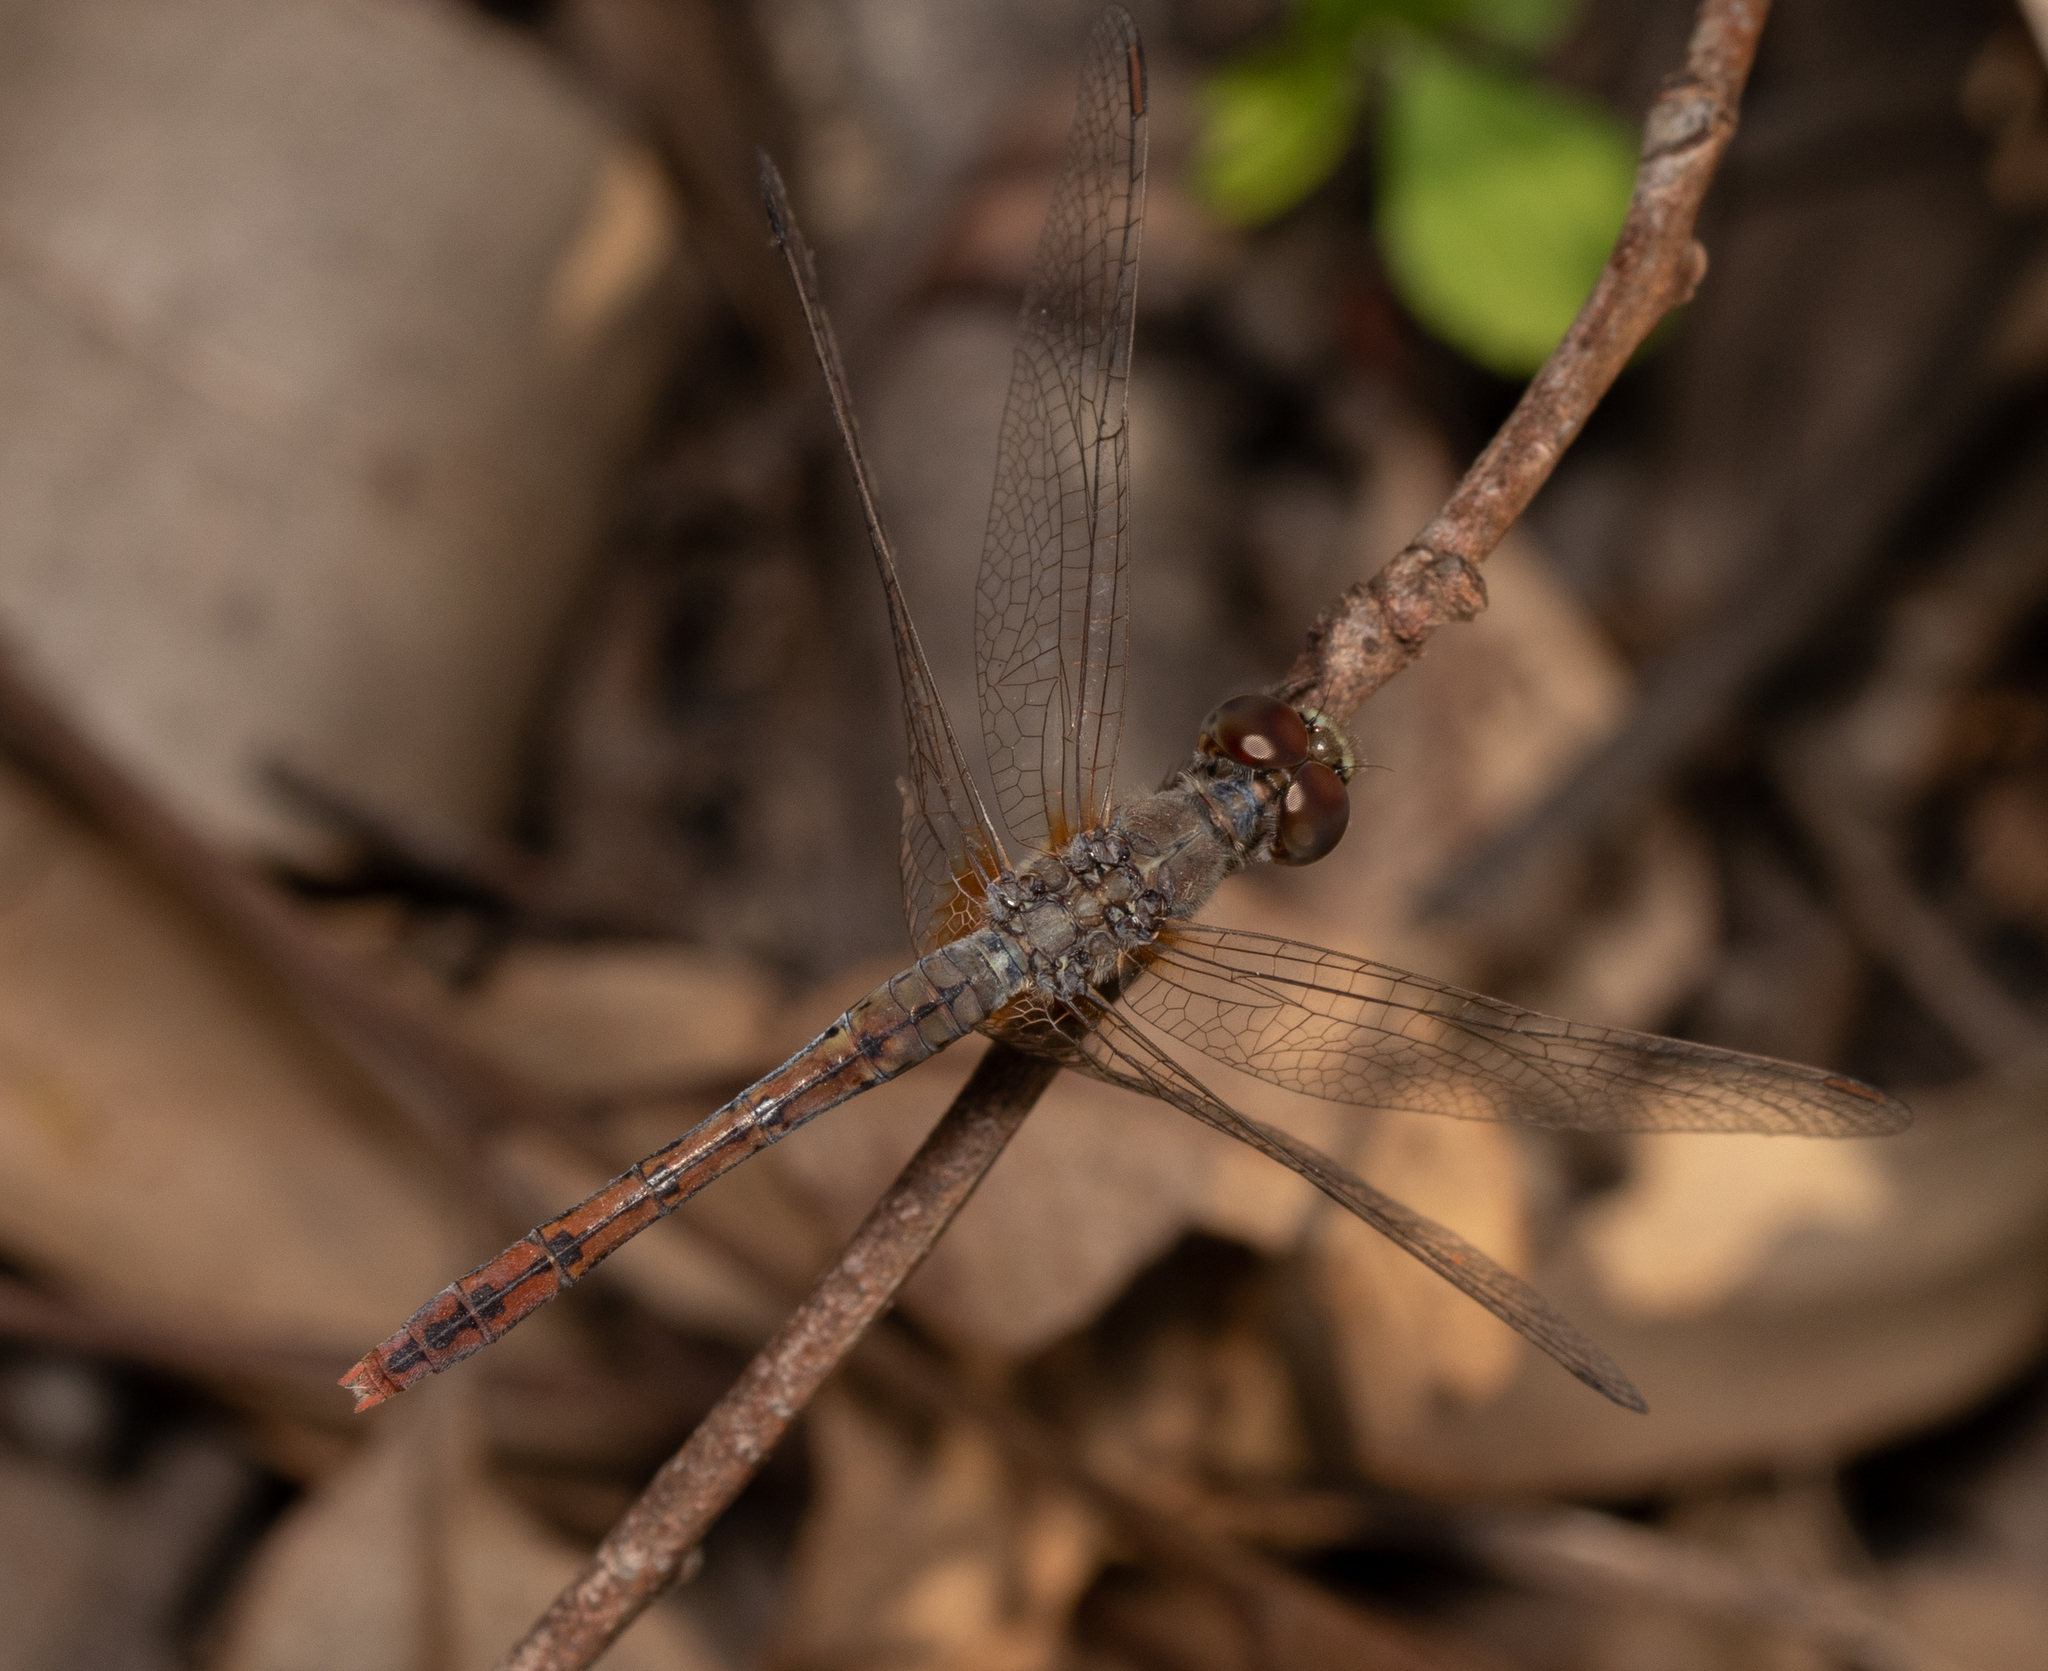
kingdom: Animalia
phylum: Arthropoda
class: Insecta
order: Odonata
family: Libellulidae
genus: Diplacodes
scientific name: Diplacodes bipunctata
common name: Red percher dragonfly
